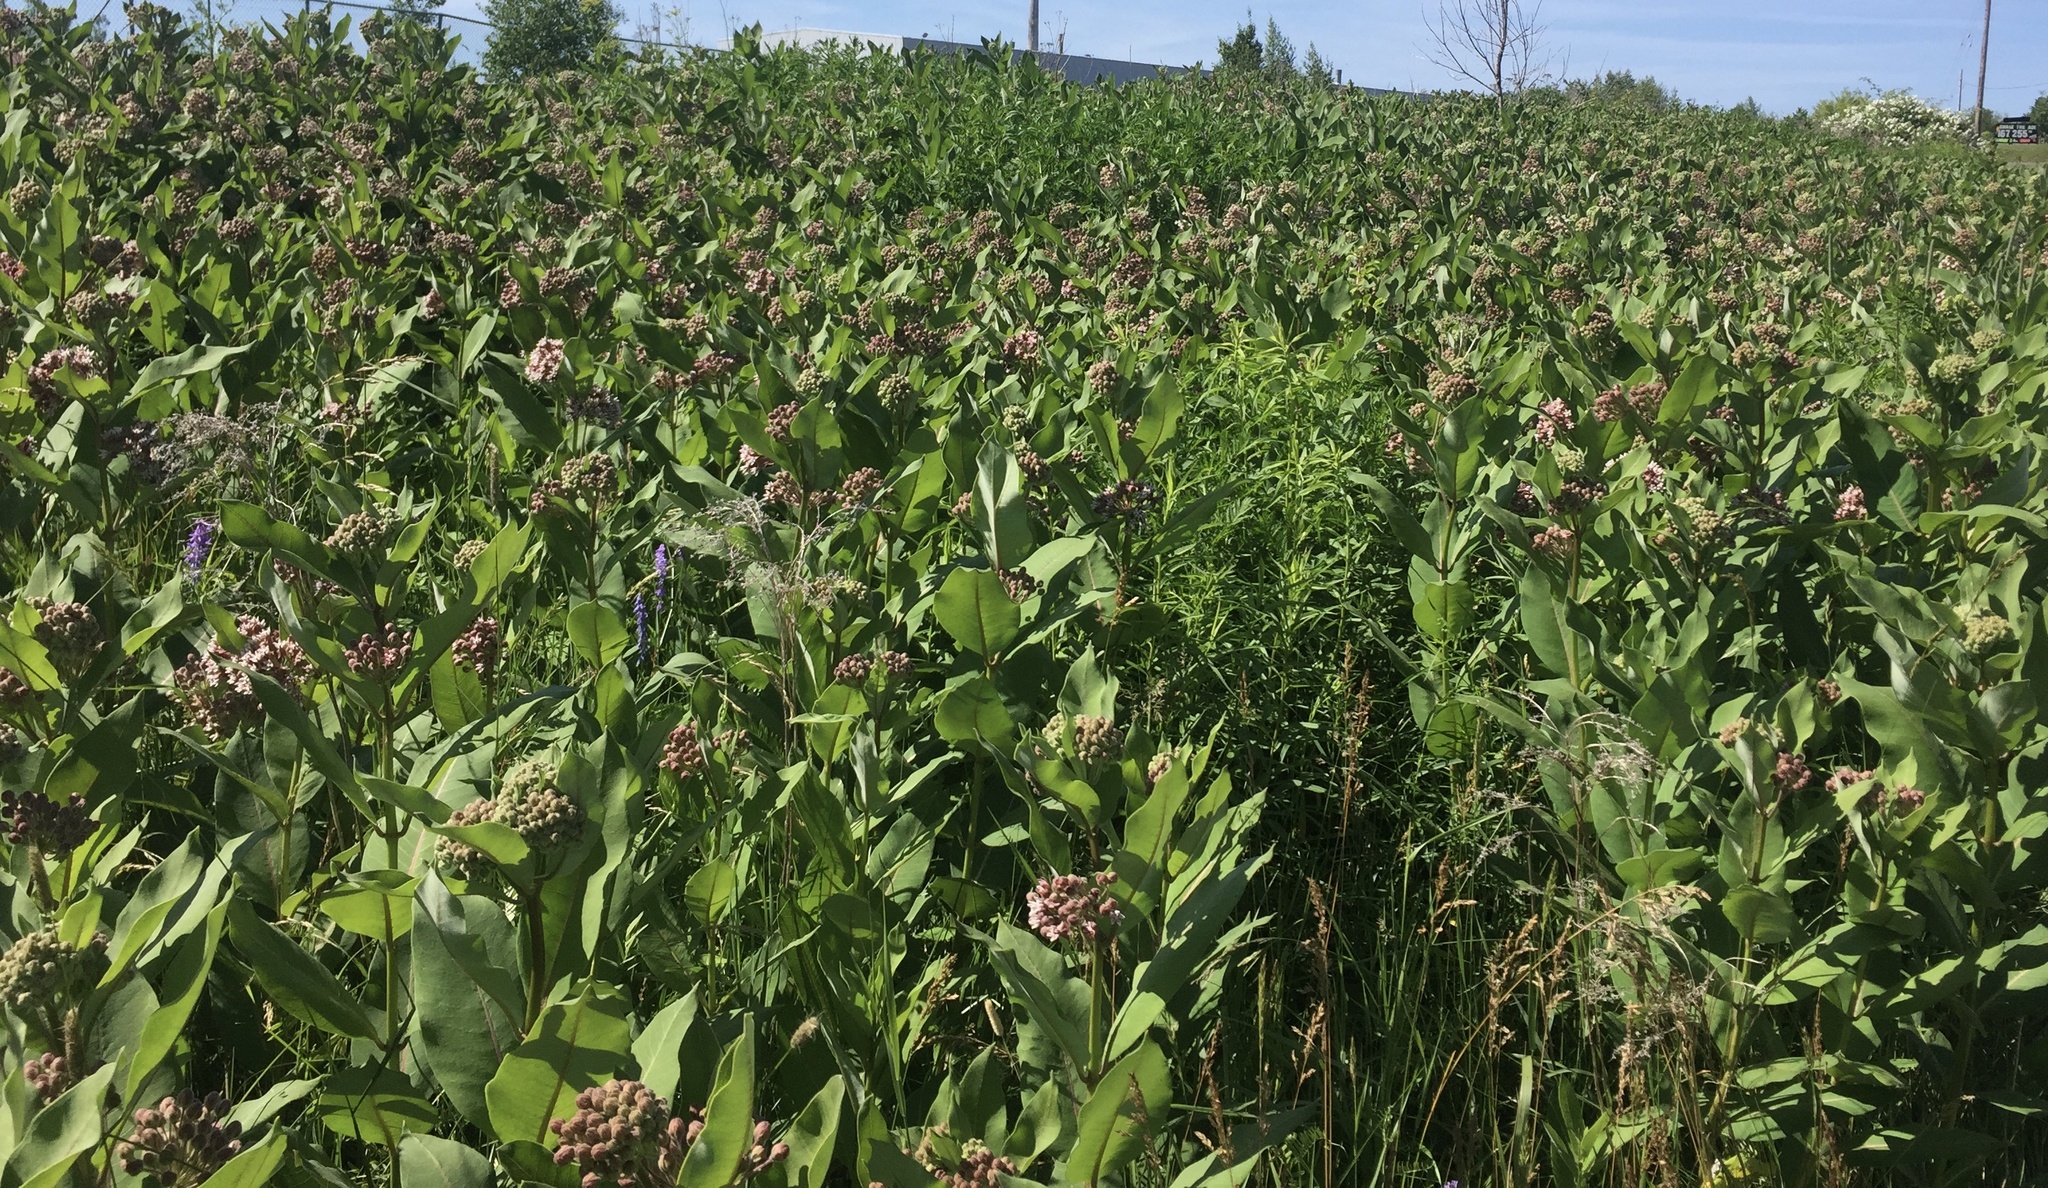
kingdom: Plantae
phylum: Tracheophyta
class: Magnoliopsida
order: Gentianales
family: Apocynaceae
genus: Asclepias
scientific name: Asclepias syriaca
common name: Common milkweed
